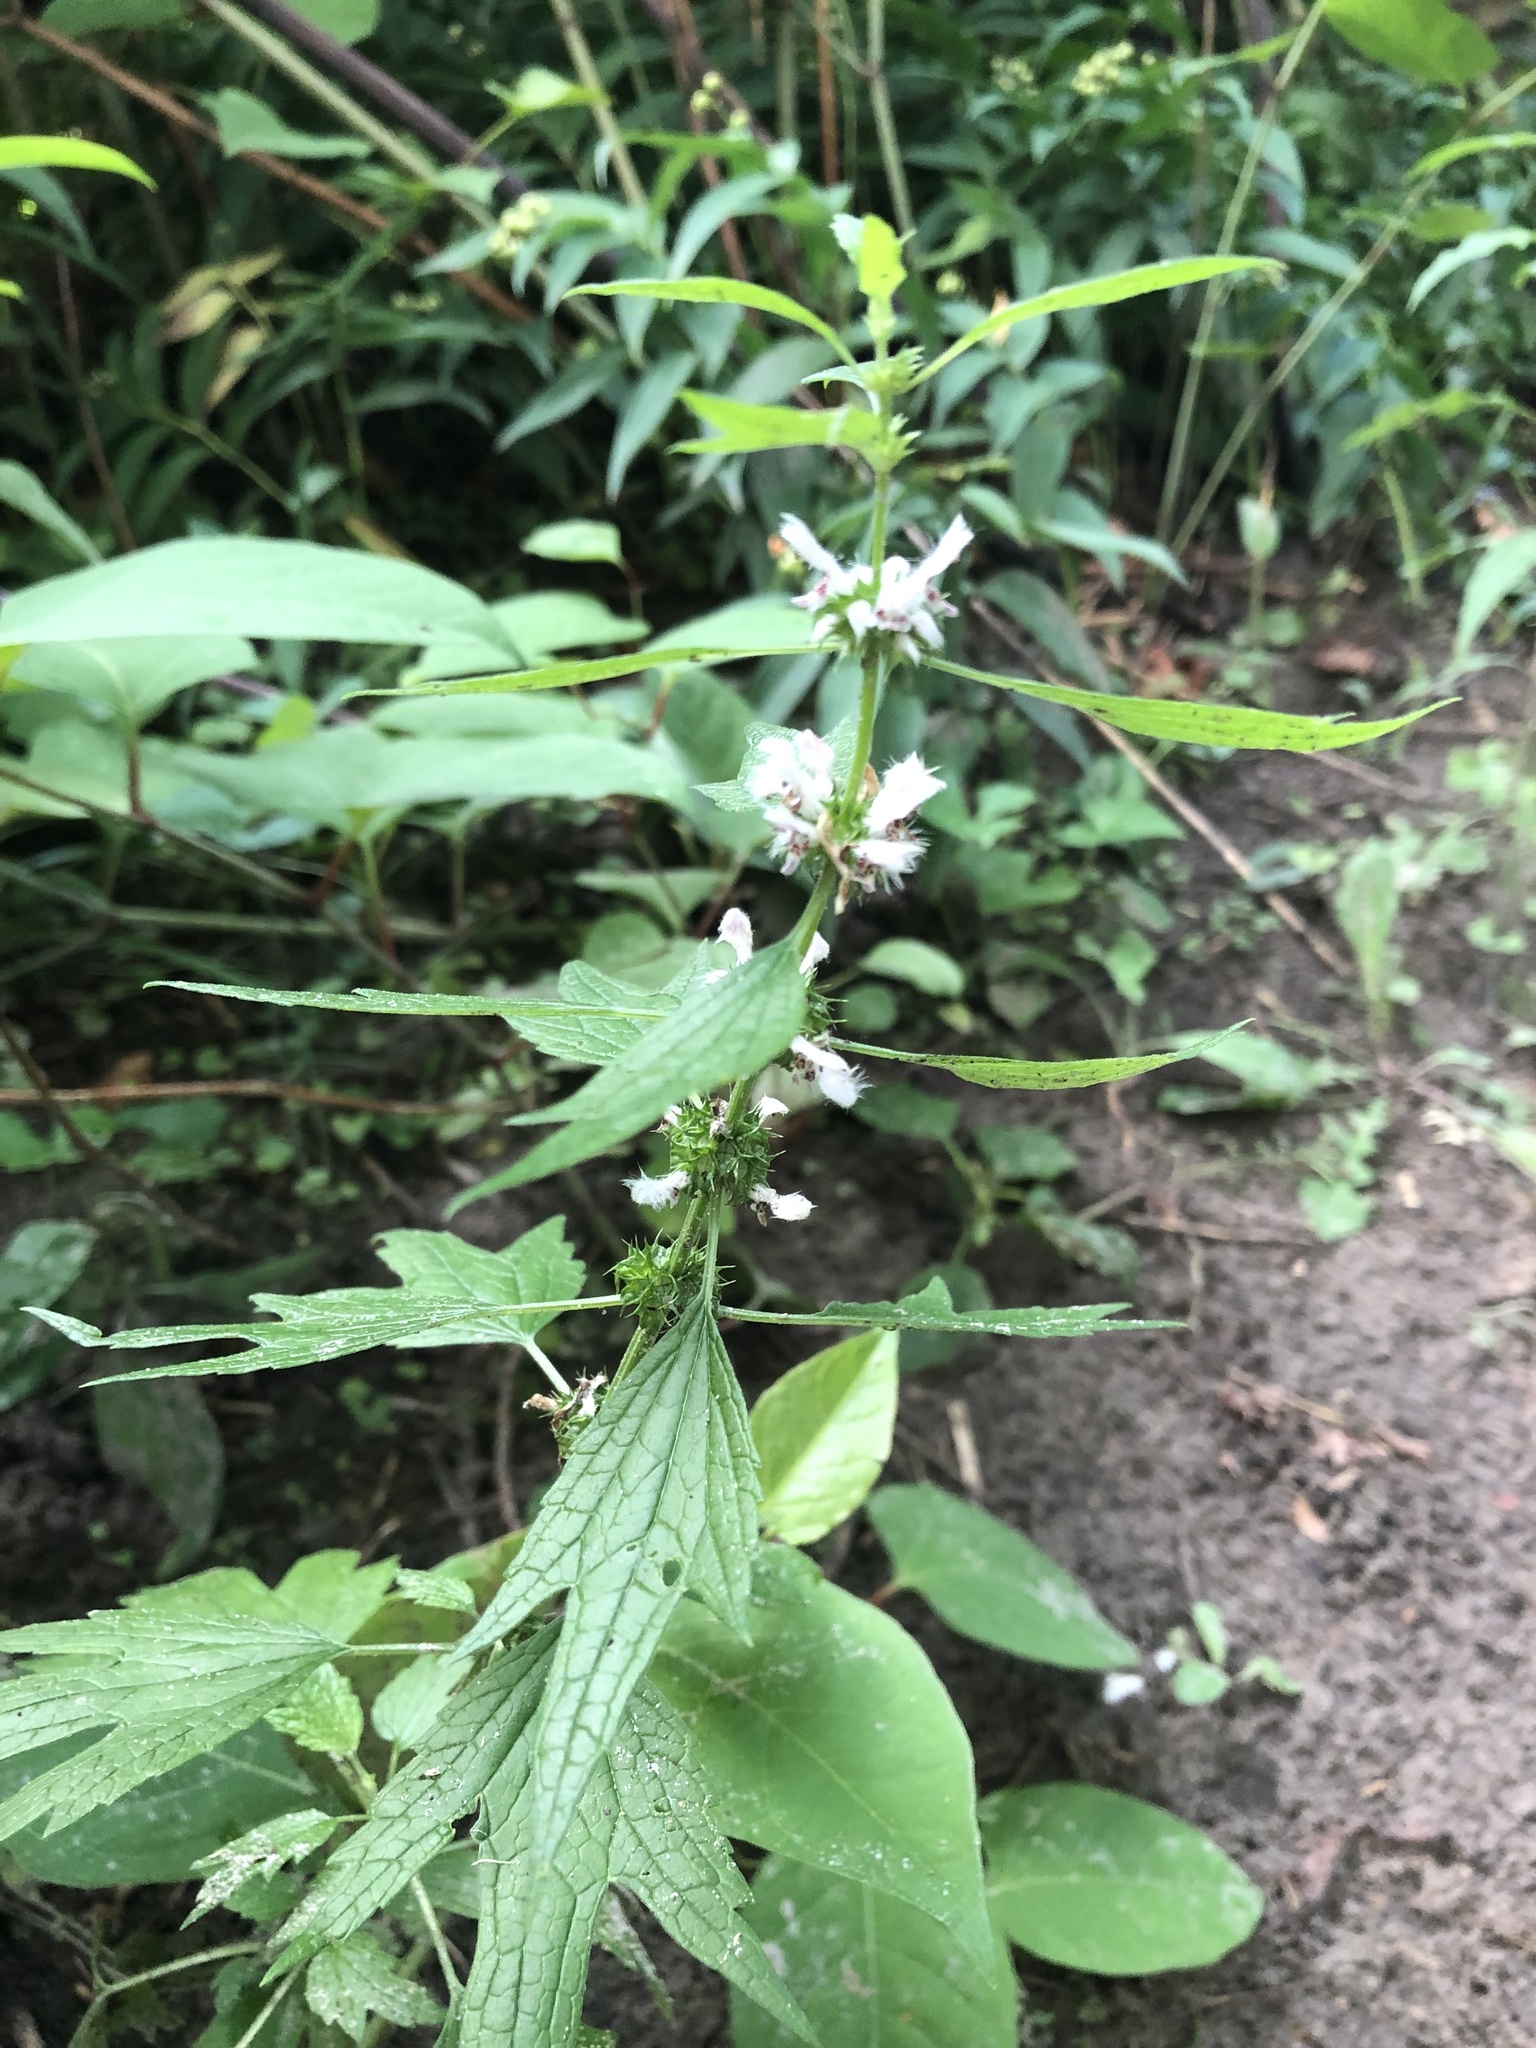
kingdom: Plantae
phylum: Tracheophyta
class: Magnoliopsida
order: Lamiales
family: Lamiaceae
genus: Leonurus
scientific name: Leonurus cardiaca
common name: Motherwort
